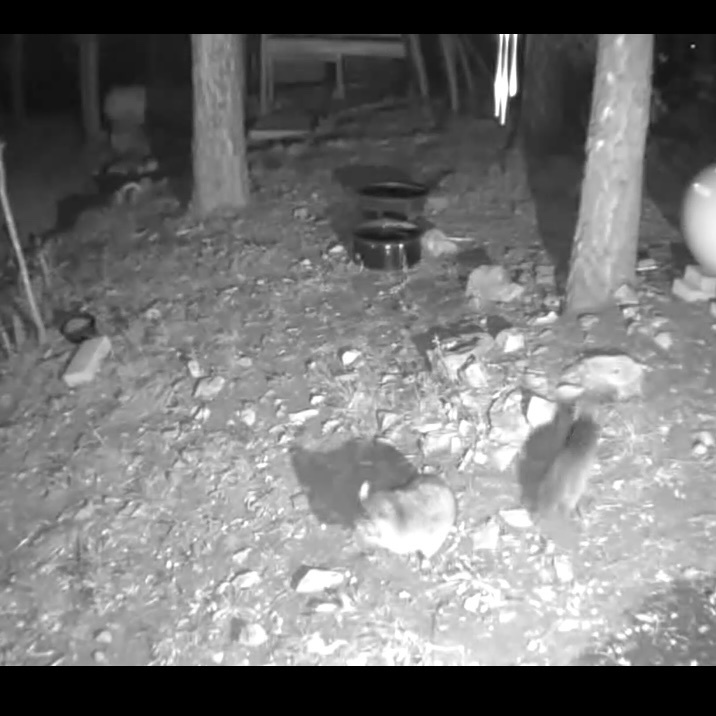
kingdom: Animalia
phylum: Chordata
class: Mammalia
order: Carnivora
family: Procyonidae
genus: Procyon
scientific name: Procyon lotor
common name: Raccoon
